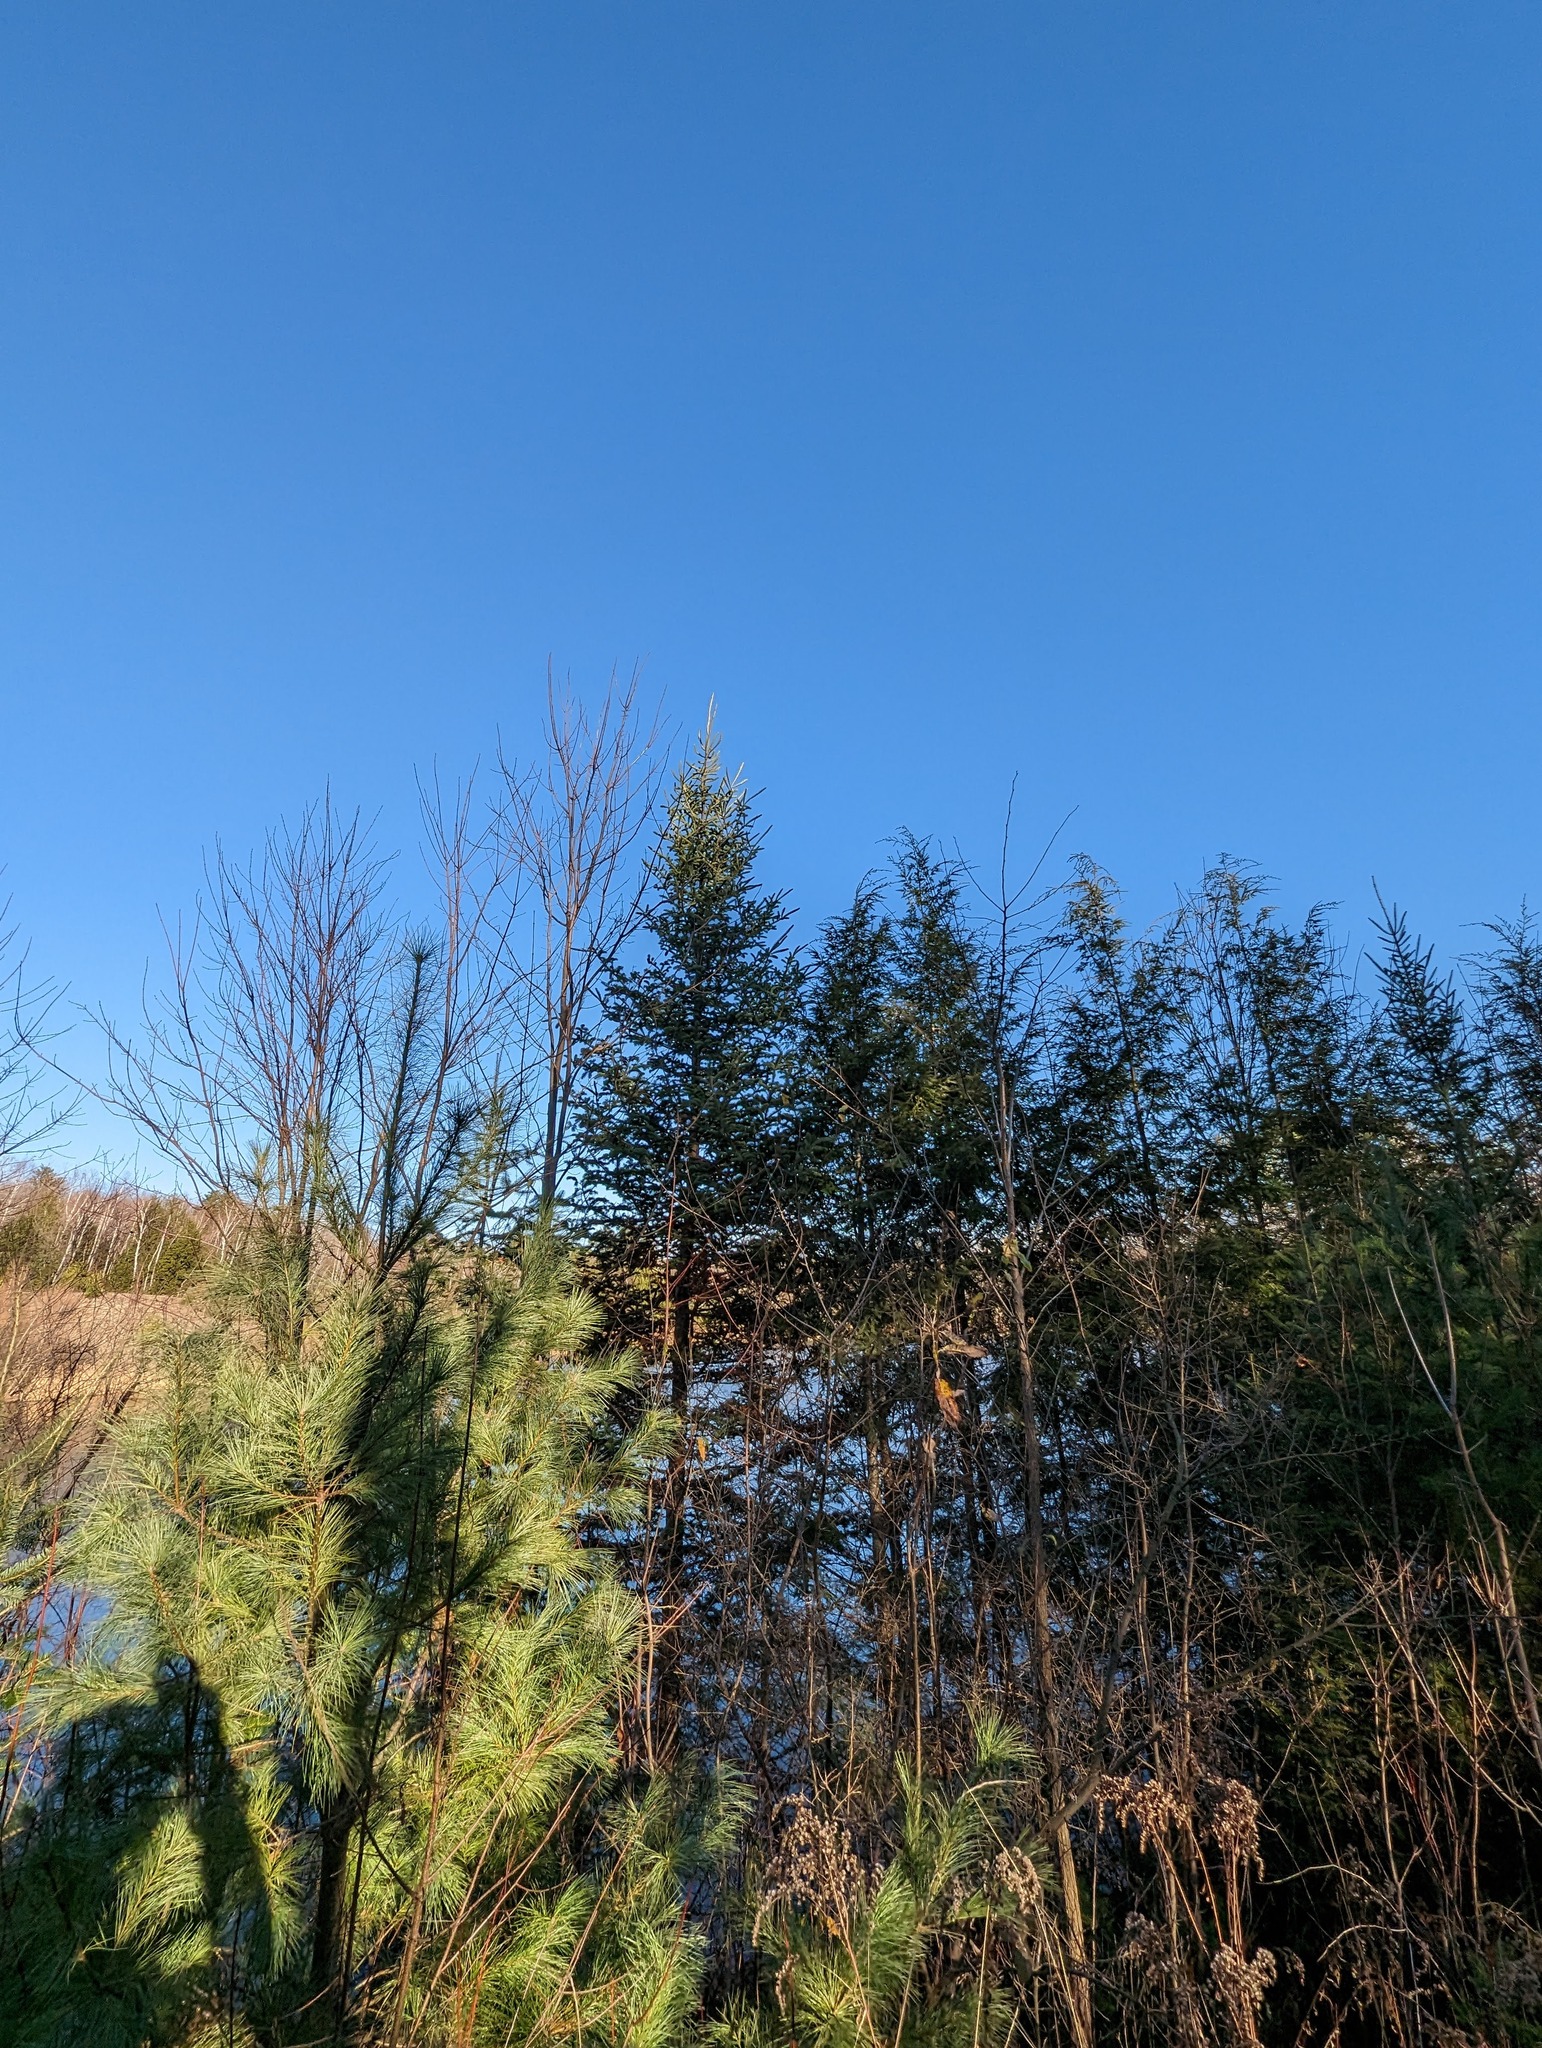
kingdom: Plantae
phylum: Tracheophyta
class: Pinopsida
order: Pinales
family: Pinaceae
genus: Abies
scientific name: Abies balsamea
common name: Balsam fir
